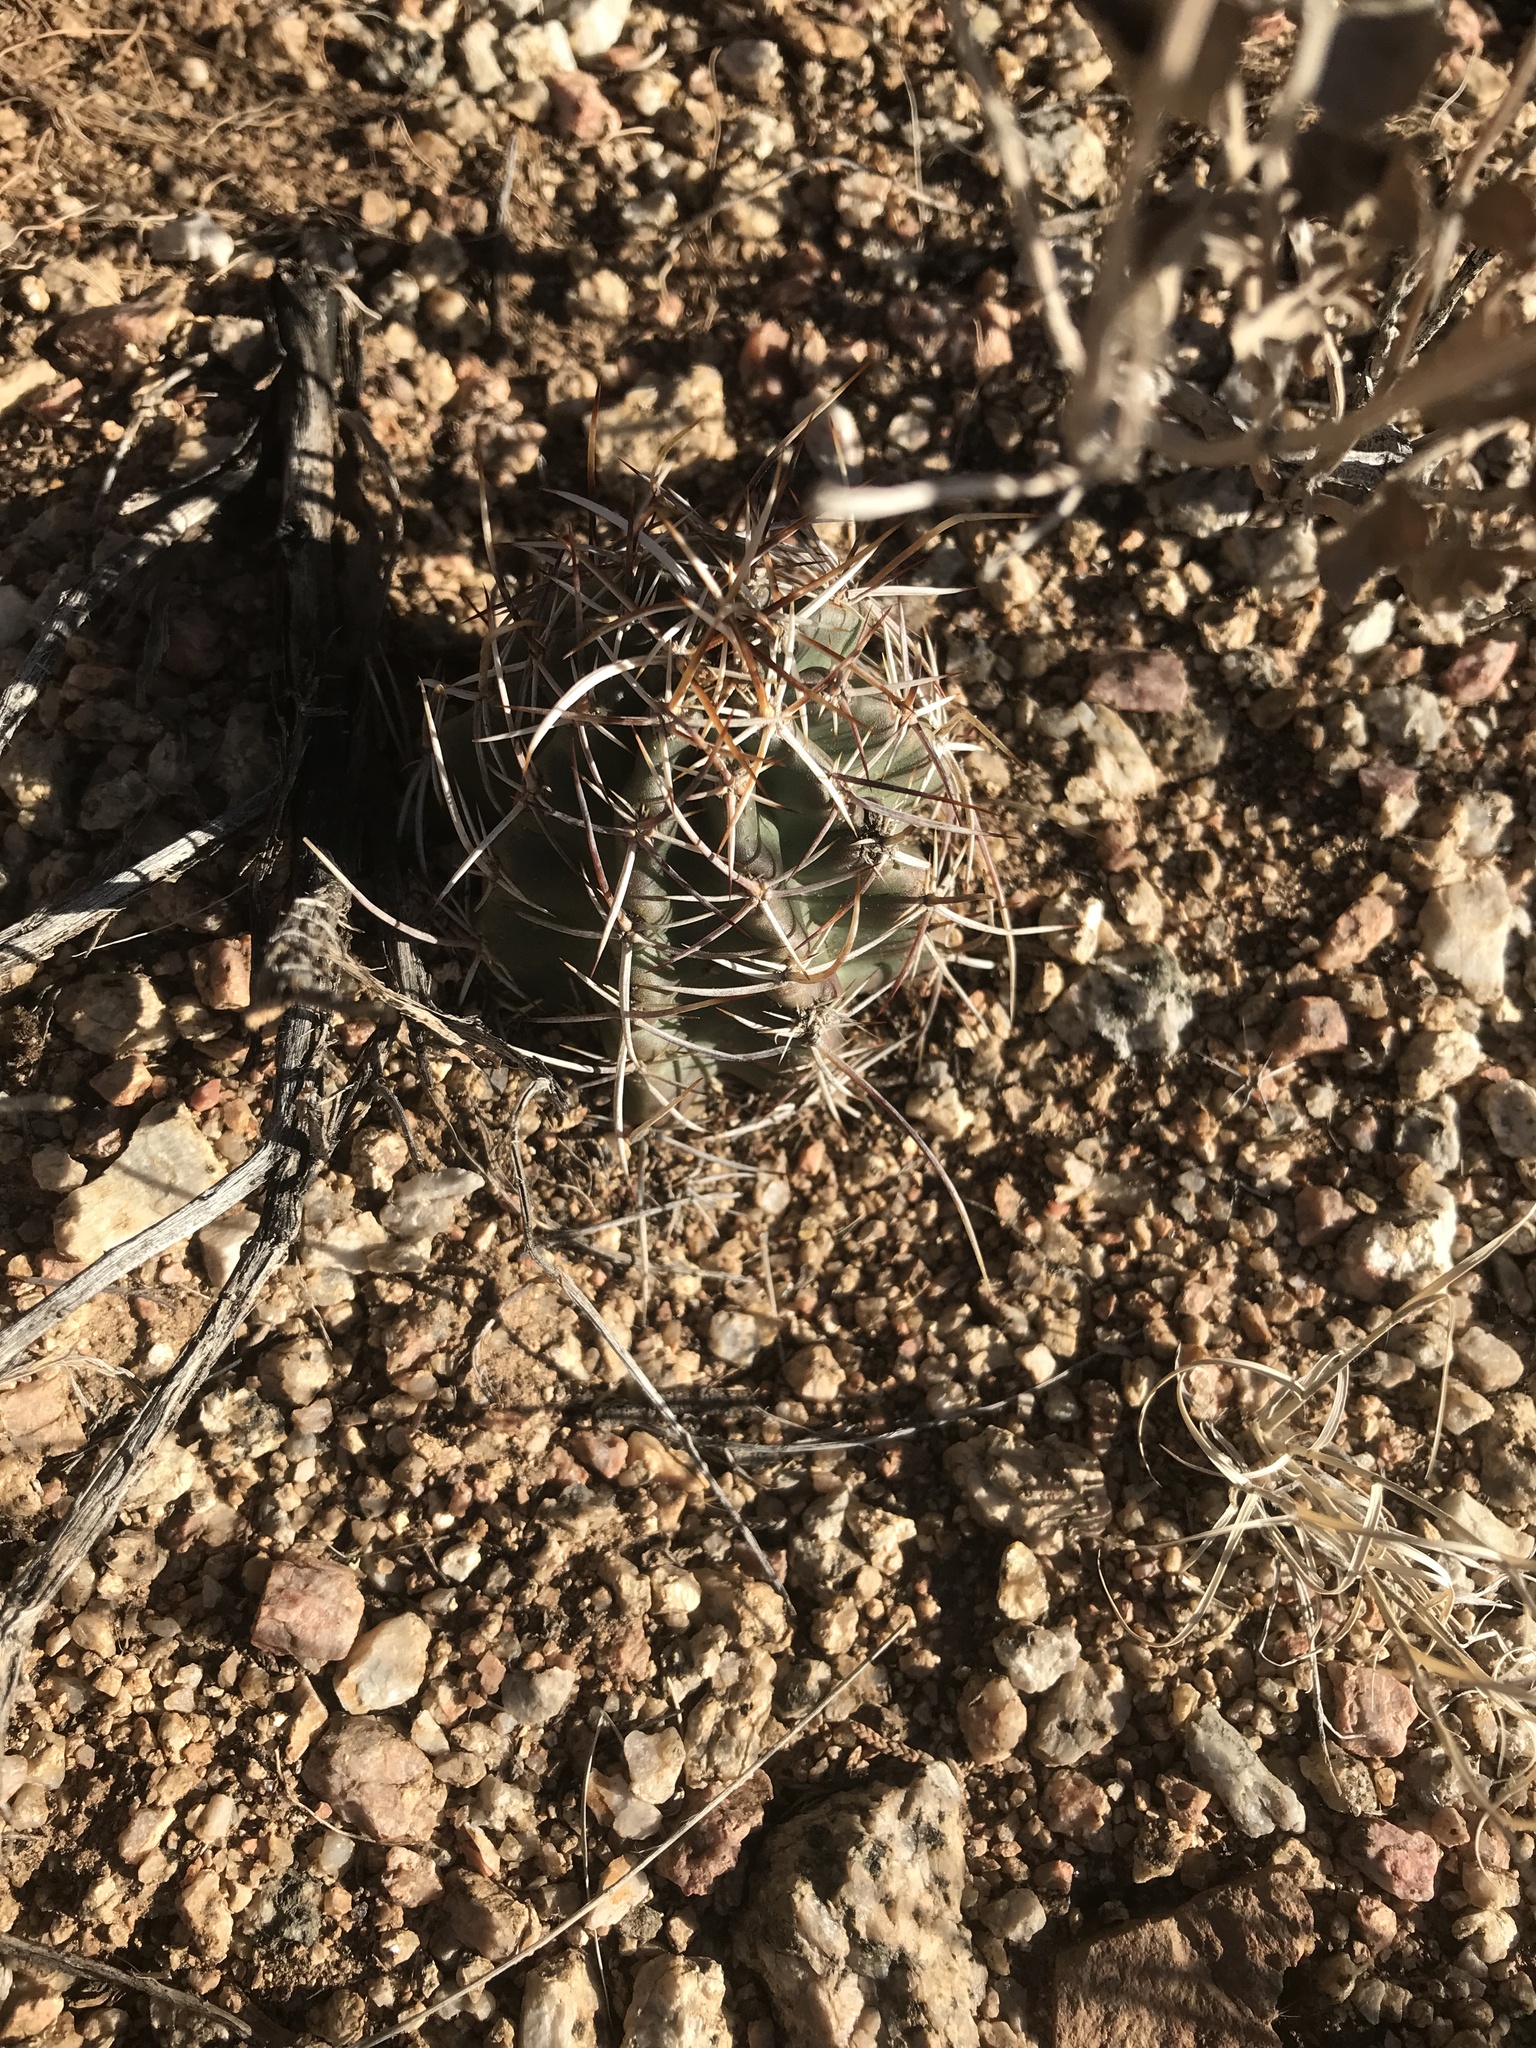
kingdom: Plantae
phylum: Tracheophyta
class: Magnoliopsida
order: Caryophyllales
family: Cactaceae
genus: Echinocereus
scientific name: Echinocereus fendleri
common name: Fendler's hedgehog cactus
